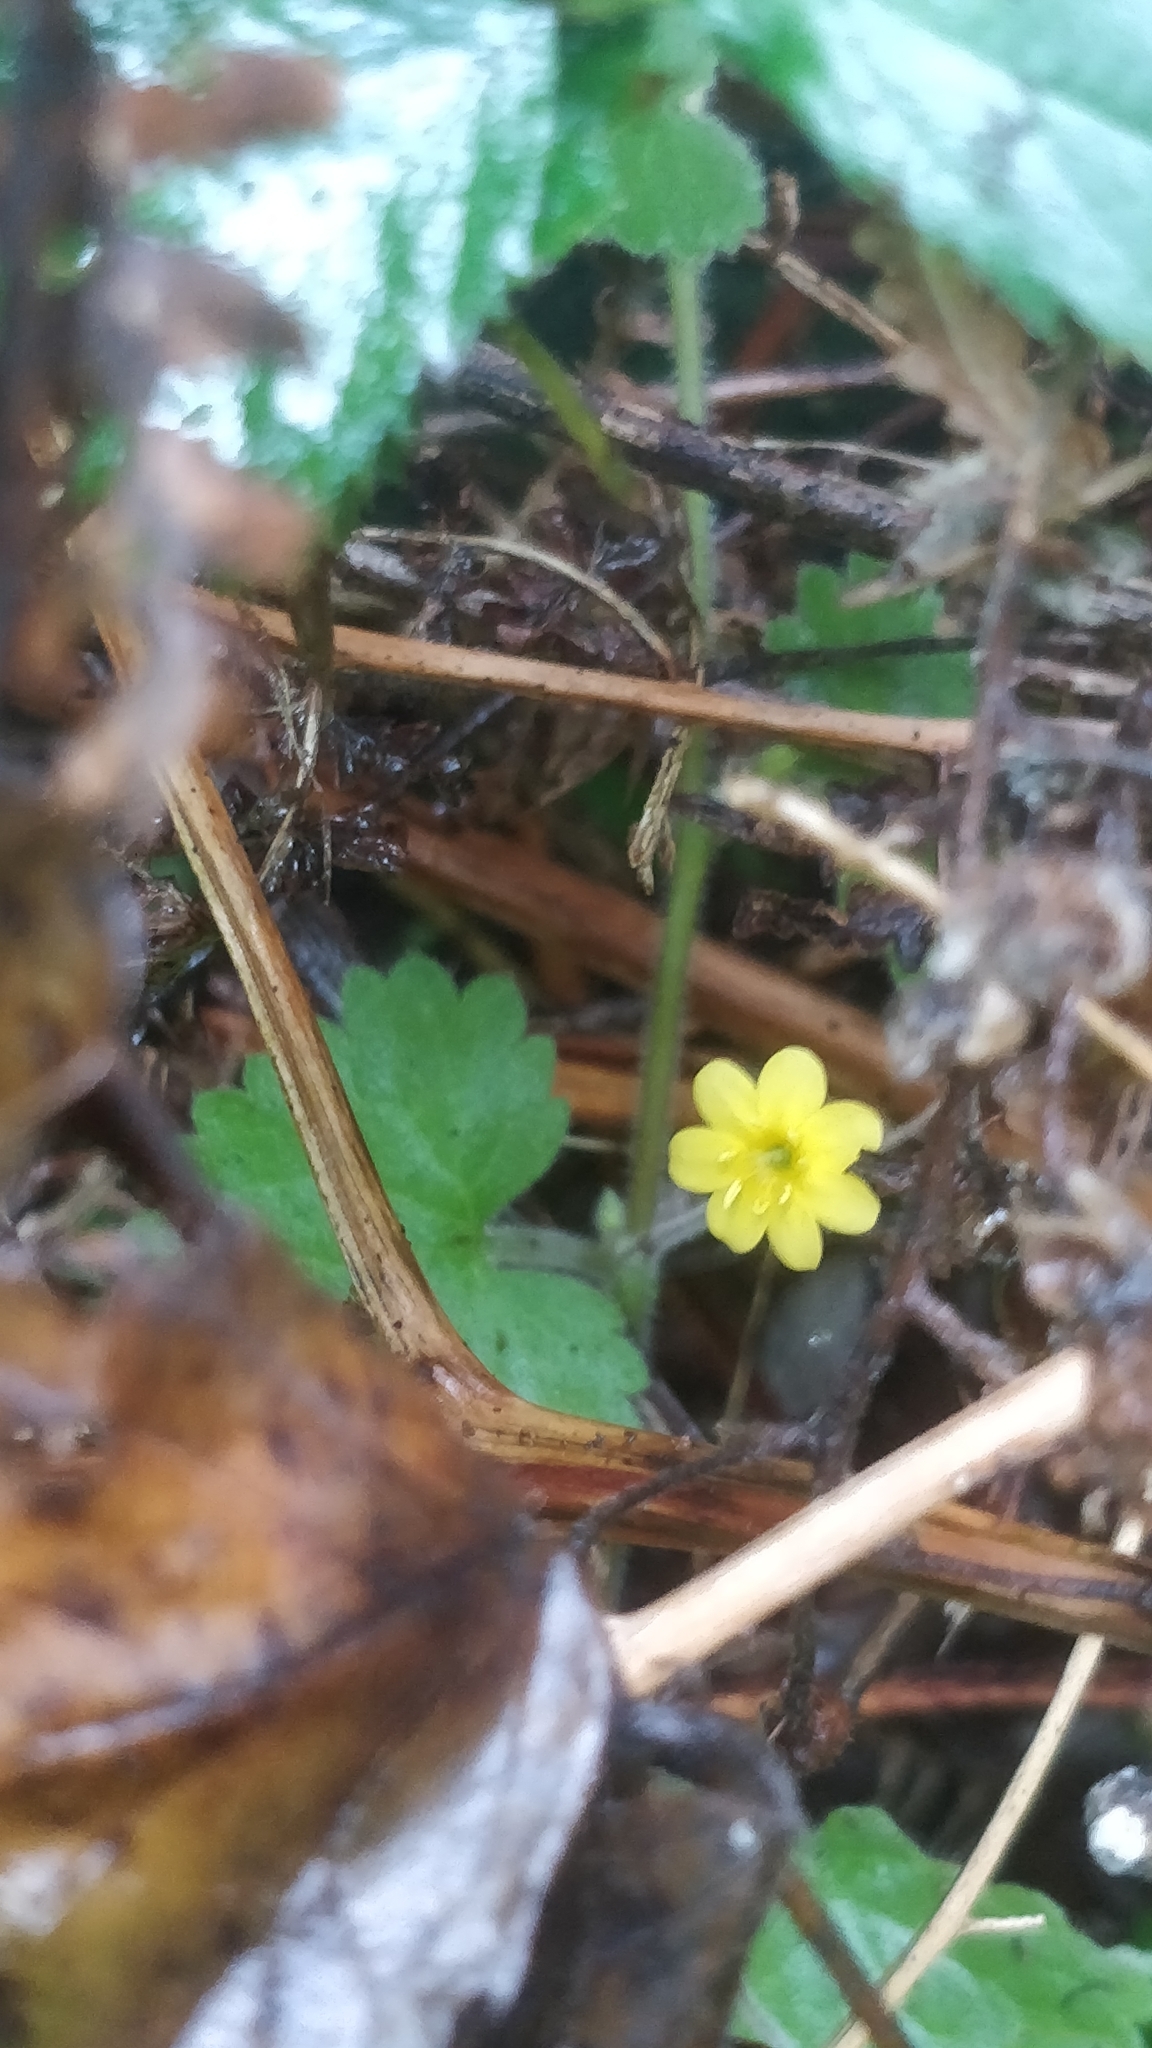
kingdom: Plantae
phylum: Tracheophyta
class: Magnoliopsida
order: Lamiales
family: Plantaginaceae
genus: Sibthorpia
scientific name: Sibthorpia peregrina
